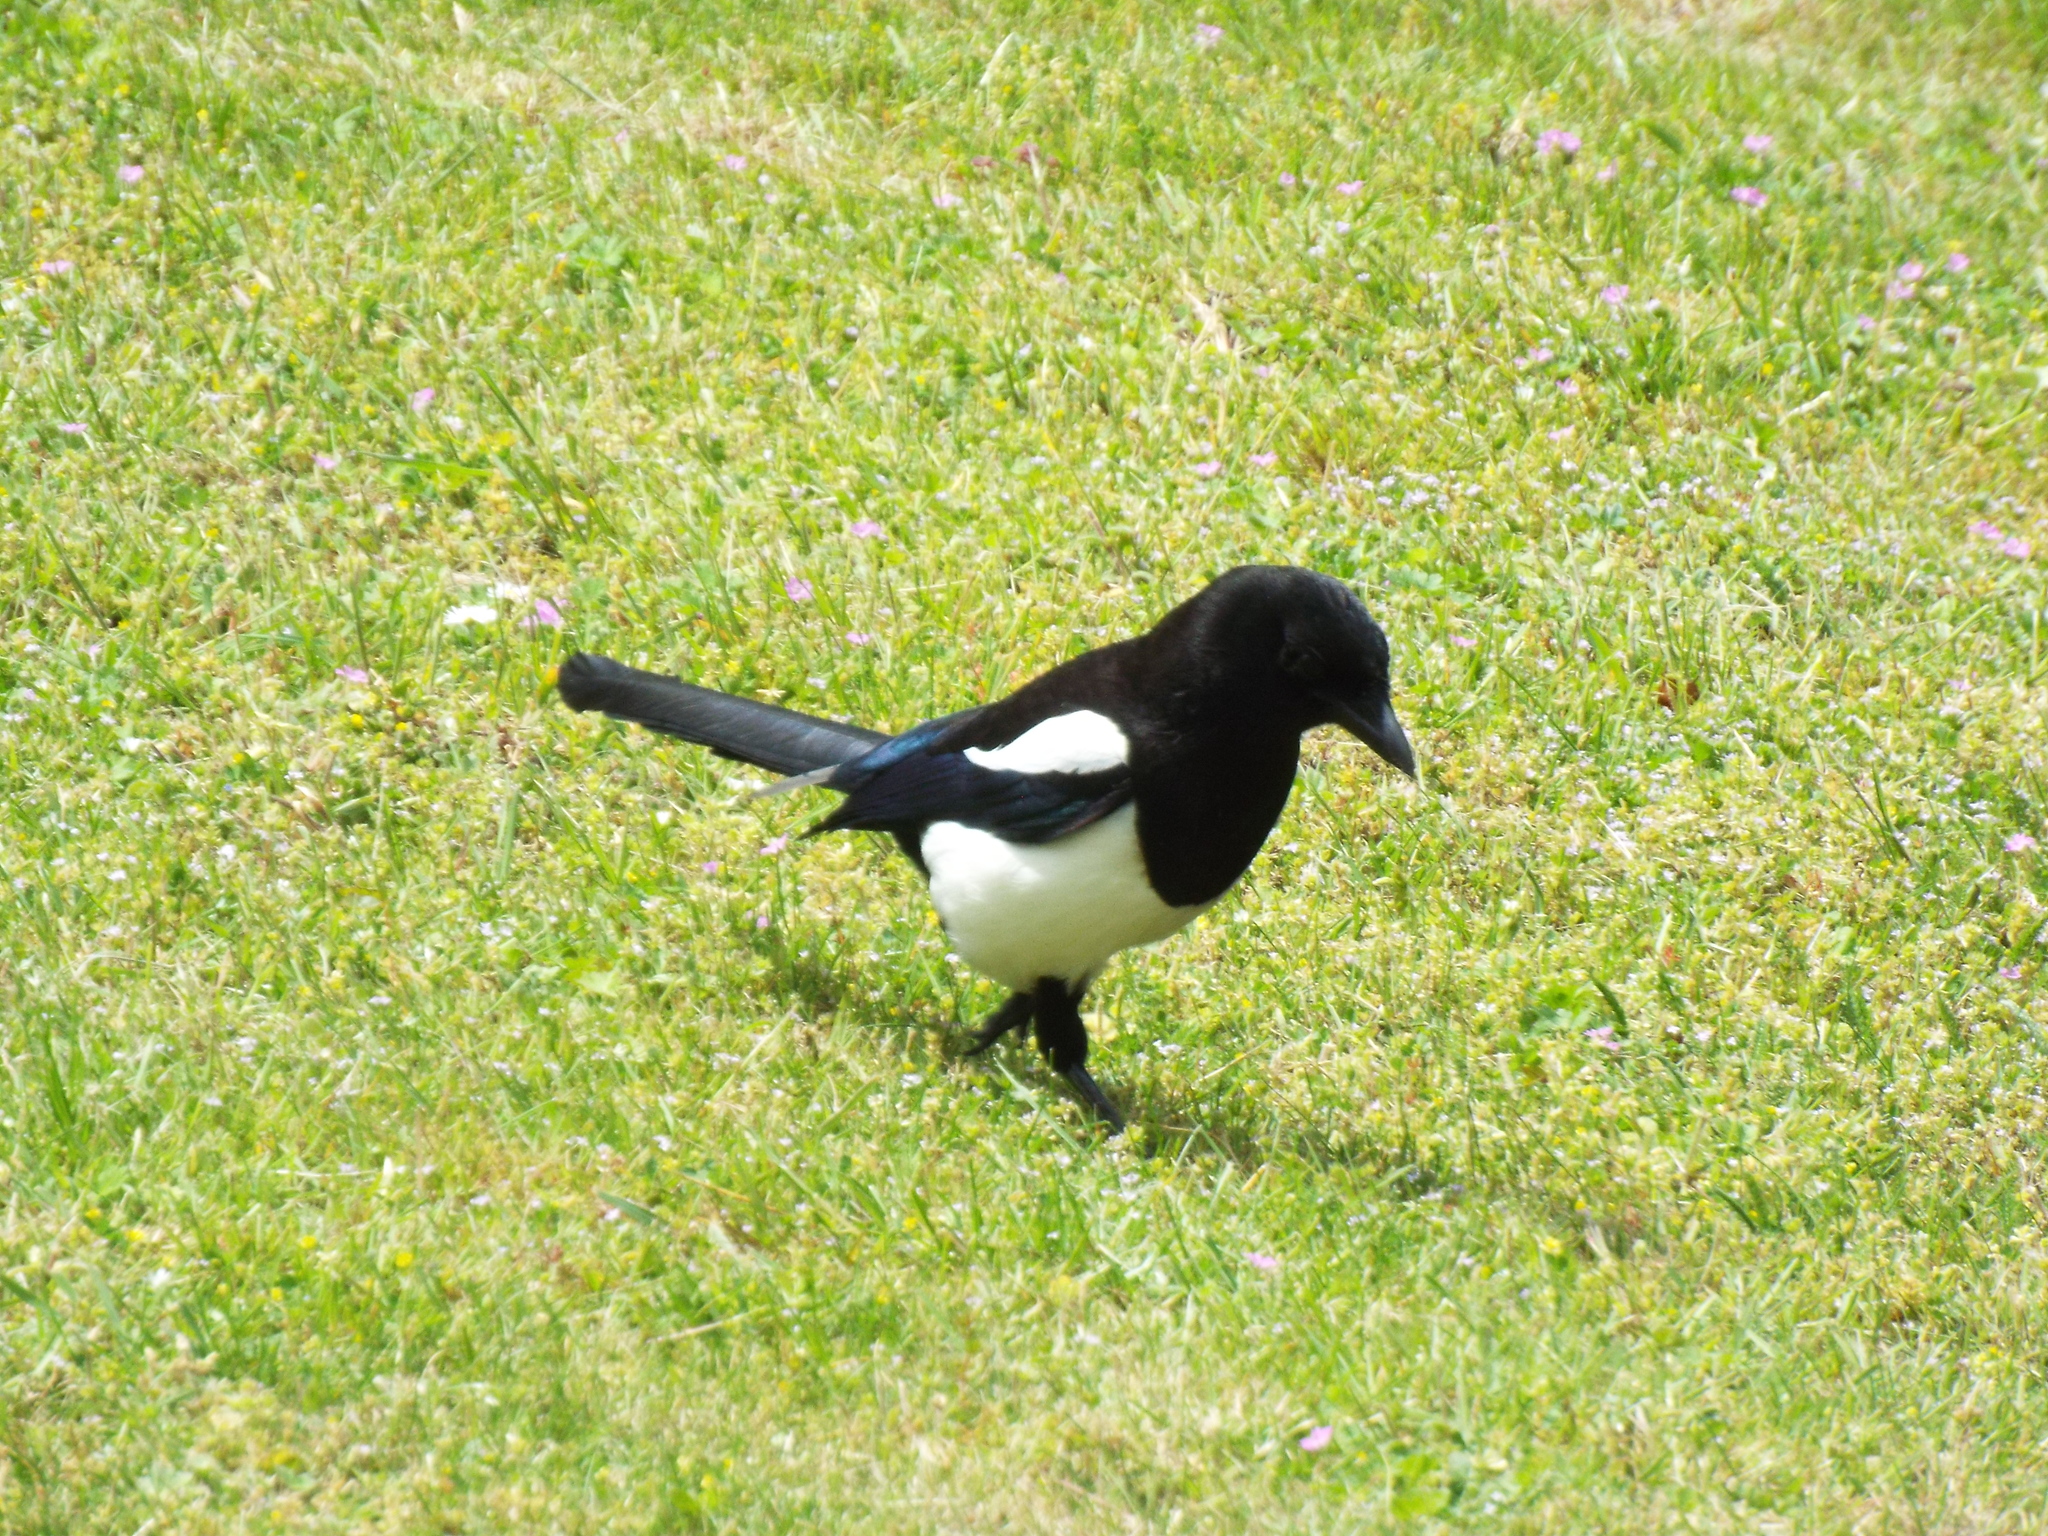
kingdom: Animalia
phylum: Chordata
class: Aves
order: Passeriformes
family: Corvidae
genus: Pica
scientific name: Pica pica
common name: Eurasian magpie
